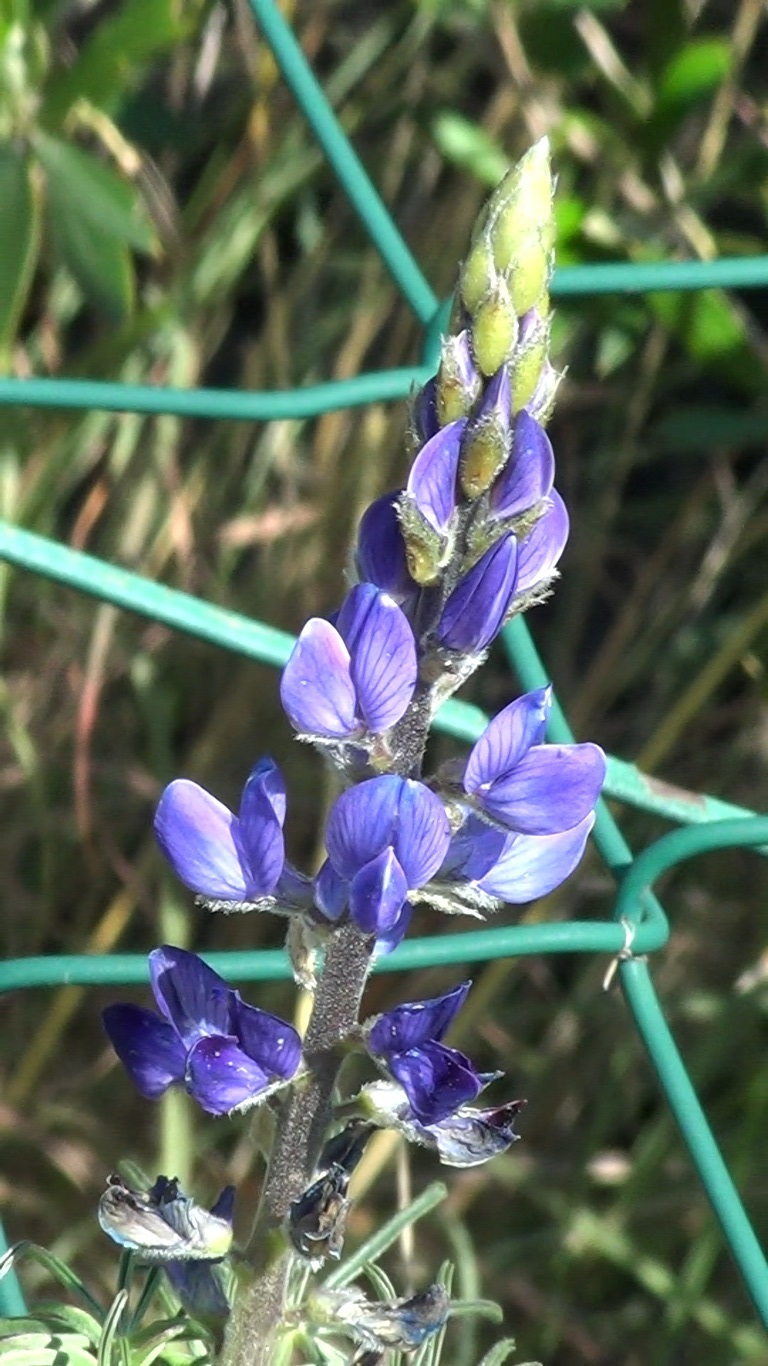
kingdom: Plantae
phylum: Tracheophyta
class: Magnoliopsida
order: Fabales
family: Fabaceae
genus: Lupinus
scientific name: Lupinus angustifolius
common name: Narrow-leaved lupin
